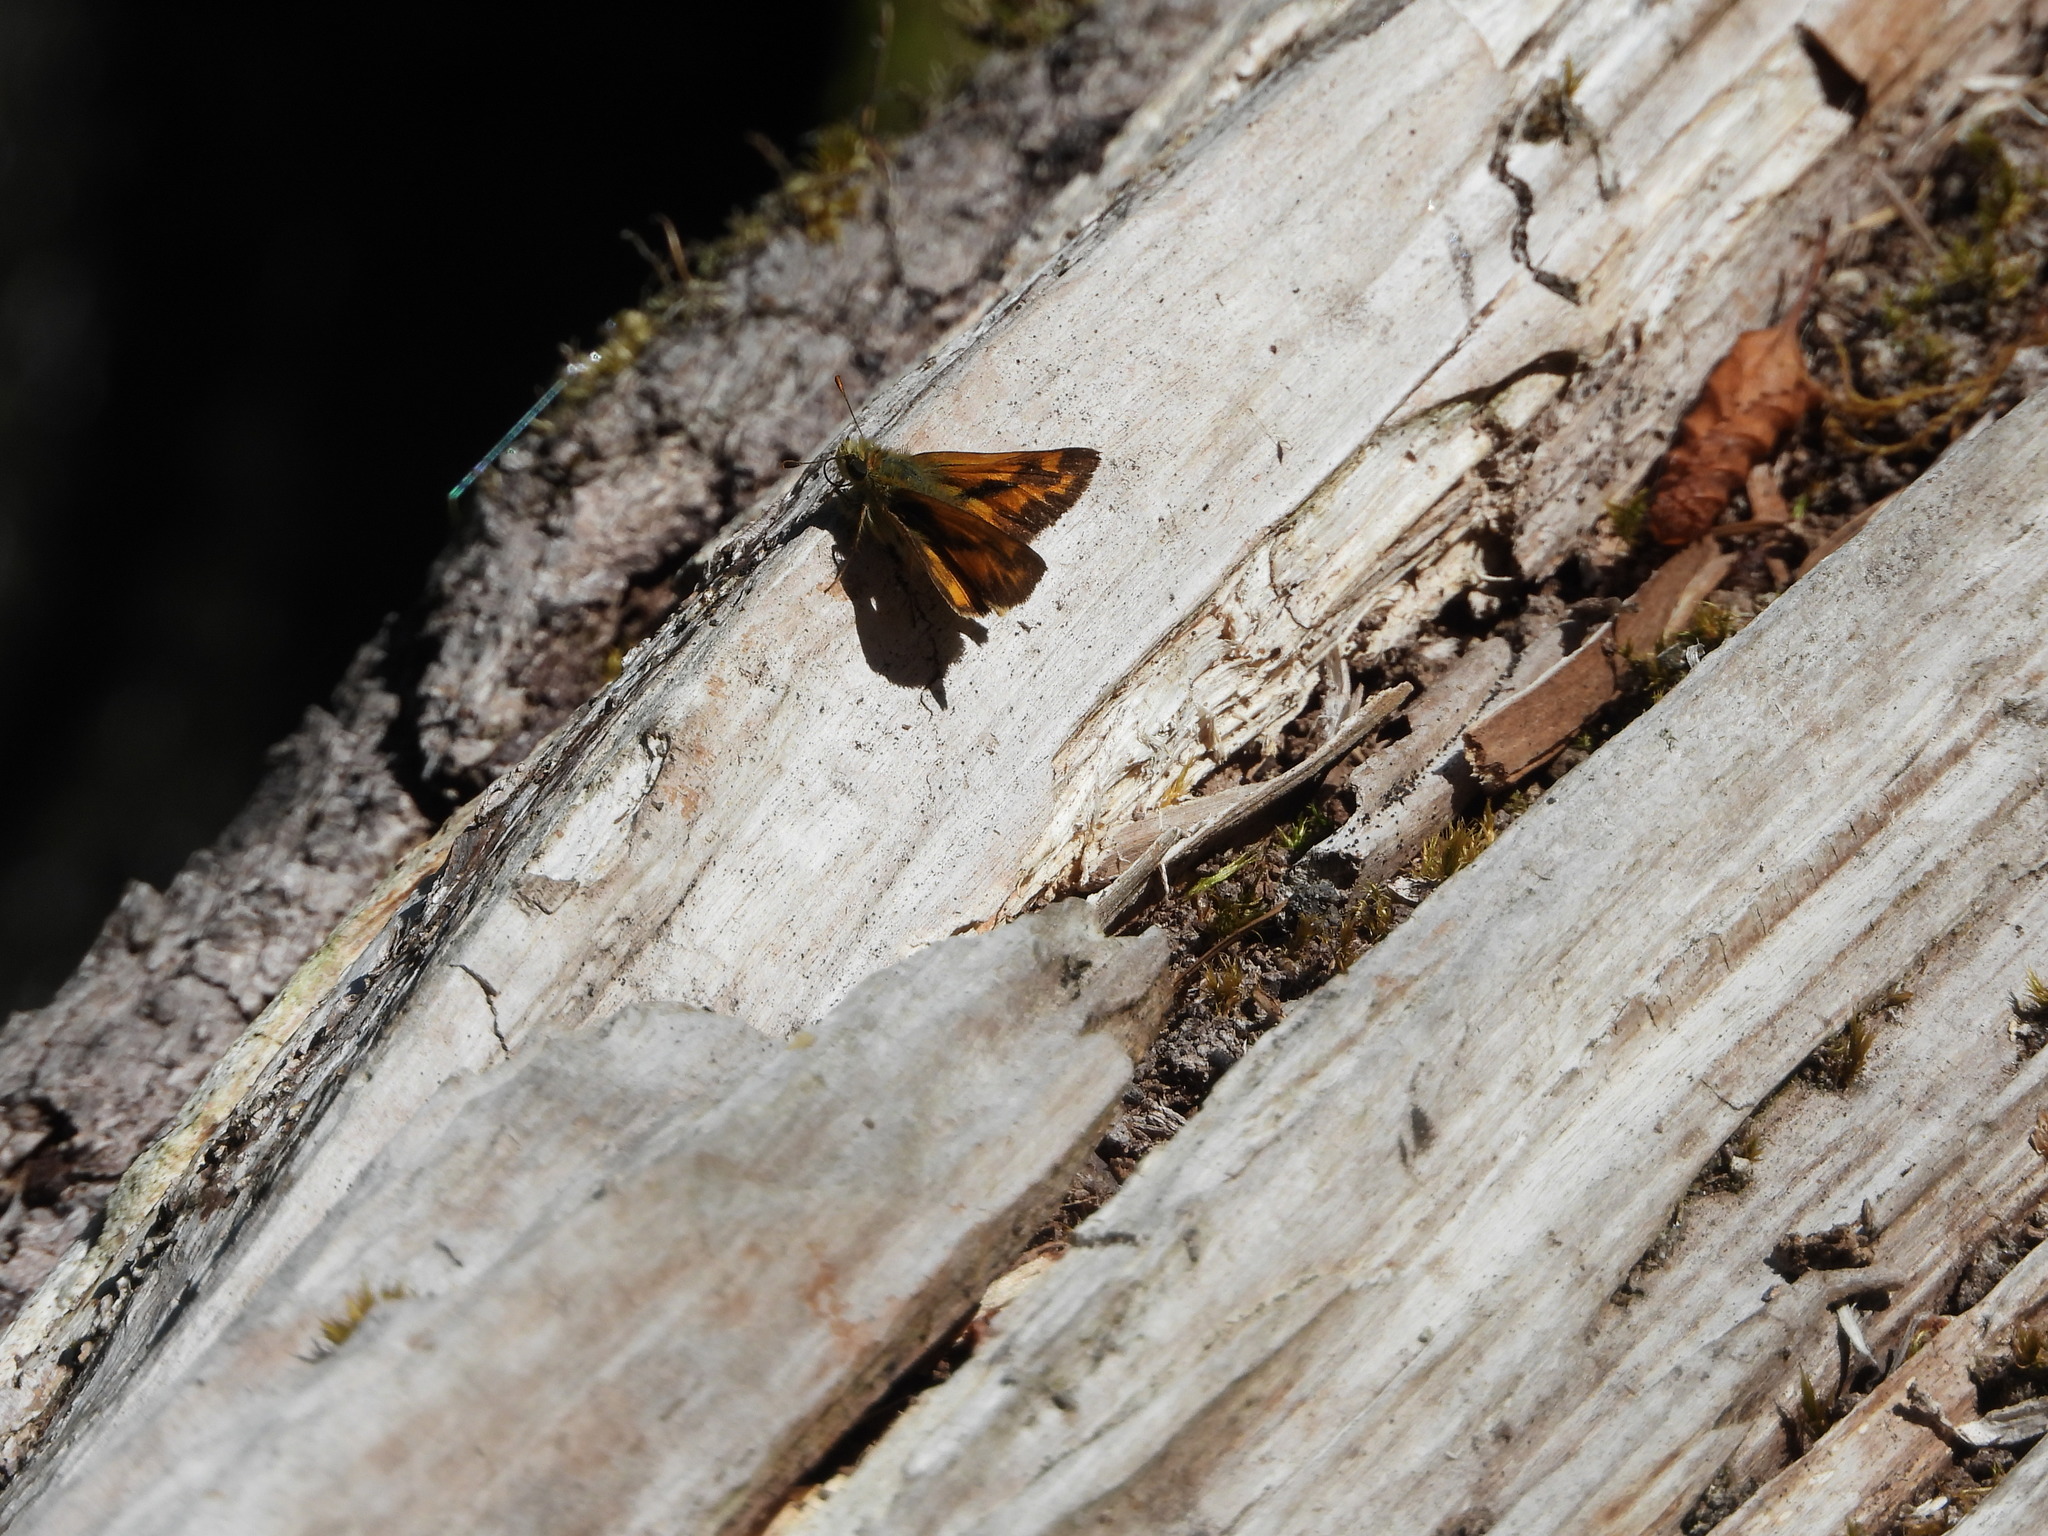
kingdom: Animalia
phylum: Arthropoda
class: Insecta
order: Lepidoptera
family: Hesperiidae
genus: Ochlodes
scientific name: Ochlodes sylvanoides
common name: Woodland skipper
